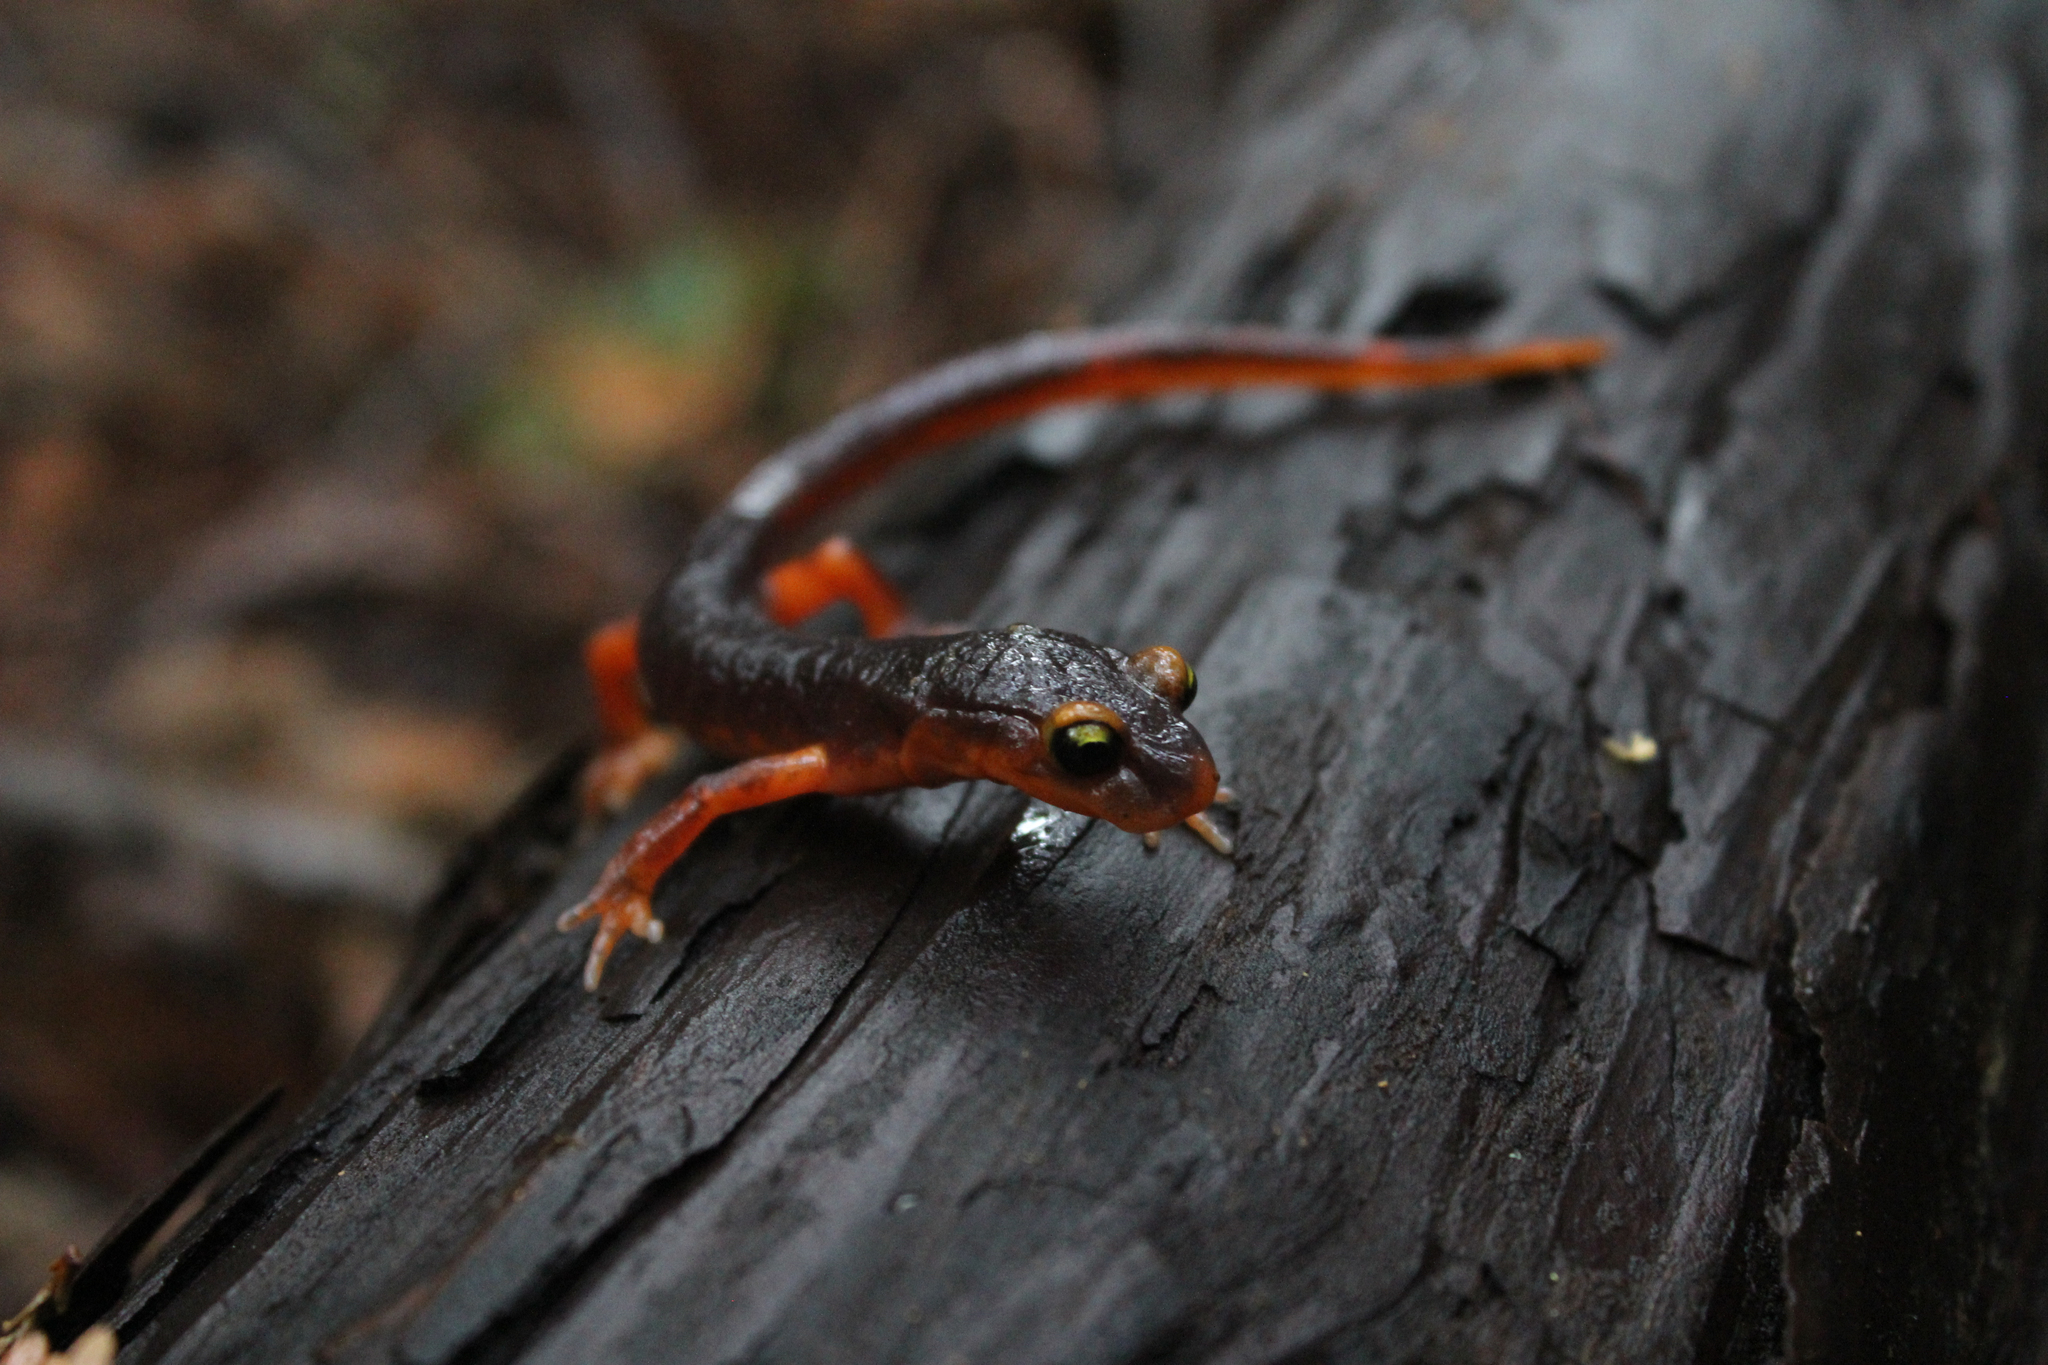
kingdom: Animalia
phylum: Chordata
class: Amphibia
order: Caudata
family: Plethodontidae
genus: Ensatina
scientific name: Ensatina eschscholtzii
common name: Ensatina
